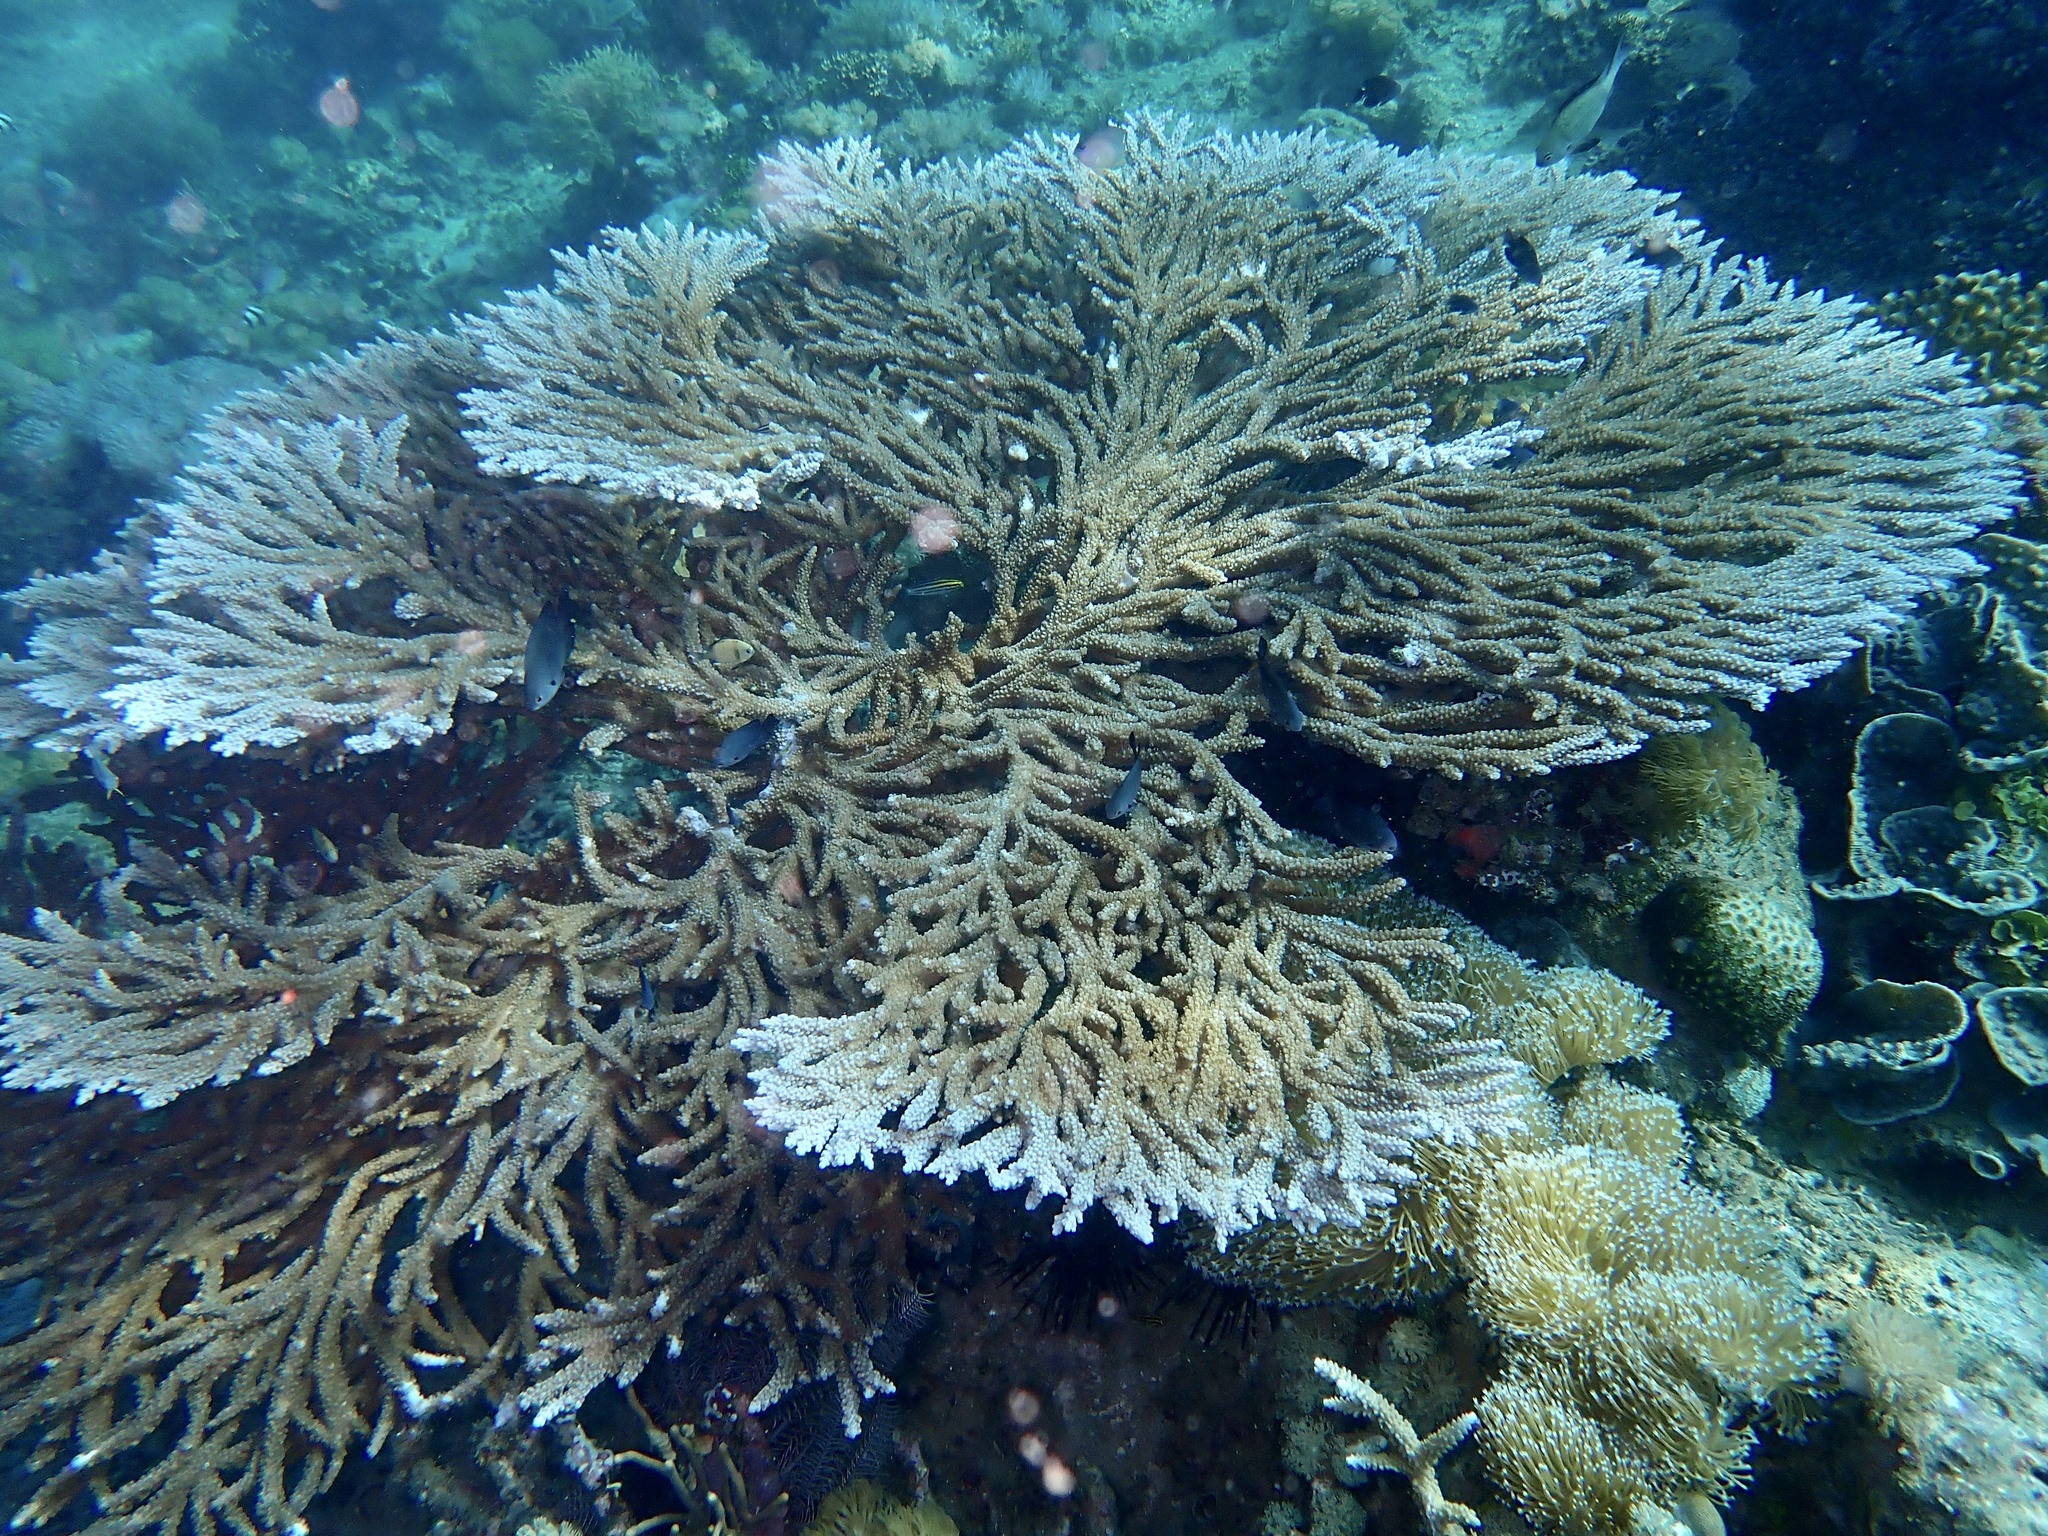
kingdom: Animalia
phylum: Cnidaria
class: Anthozoa
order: Scleractinia
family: Acroporidae
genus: Acropora
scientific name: Acropora clathrata
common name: Plate coral
